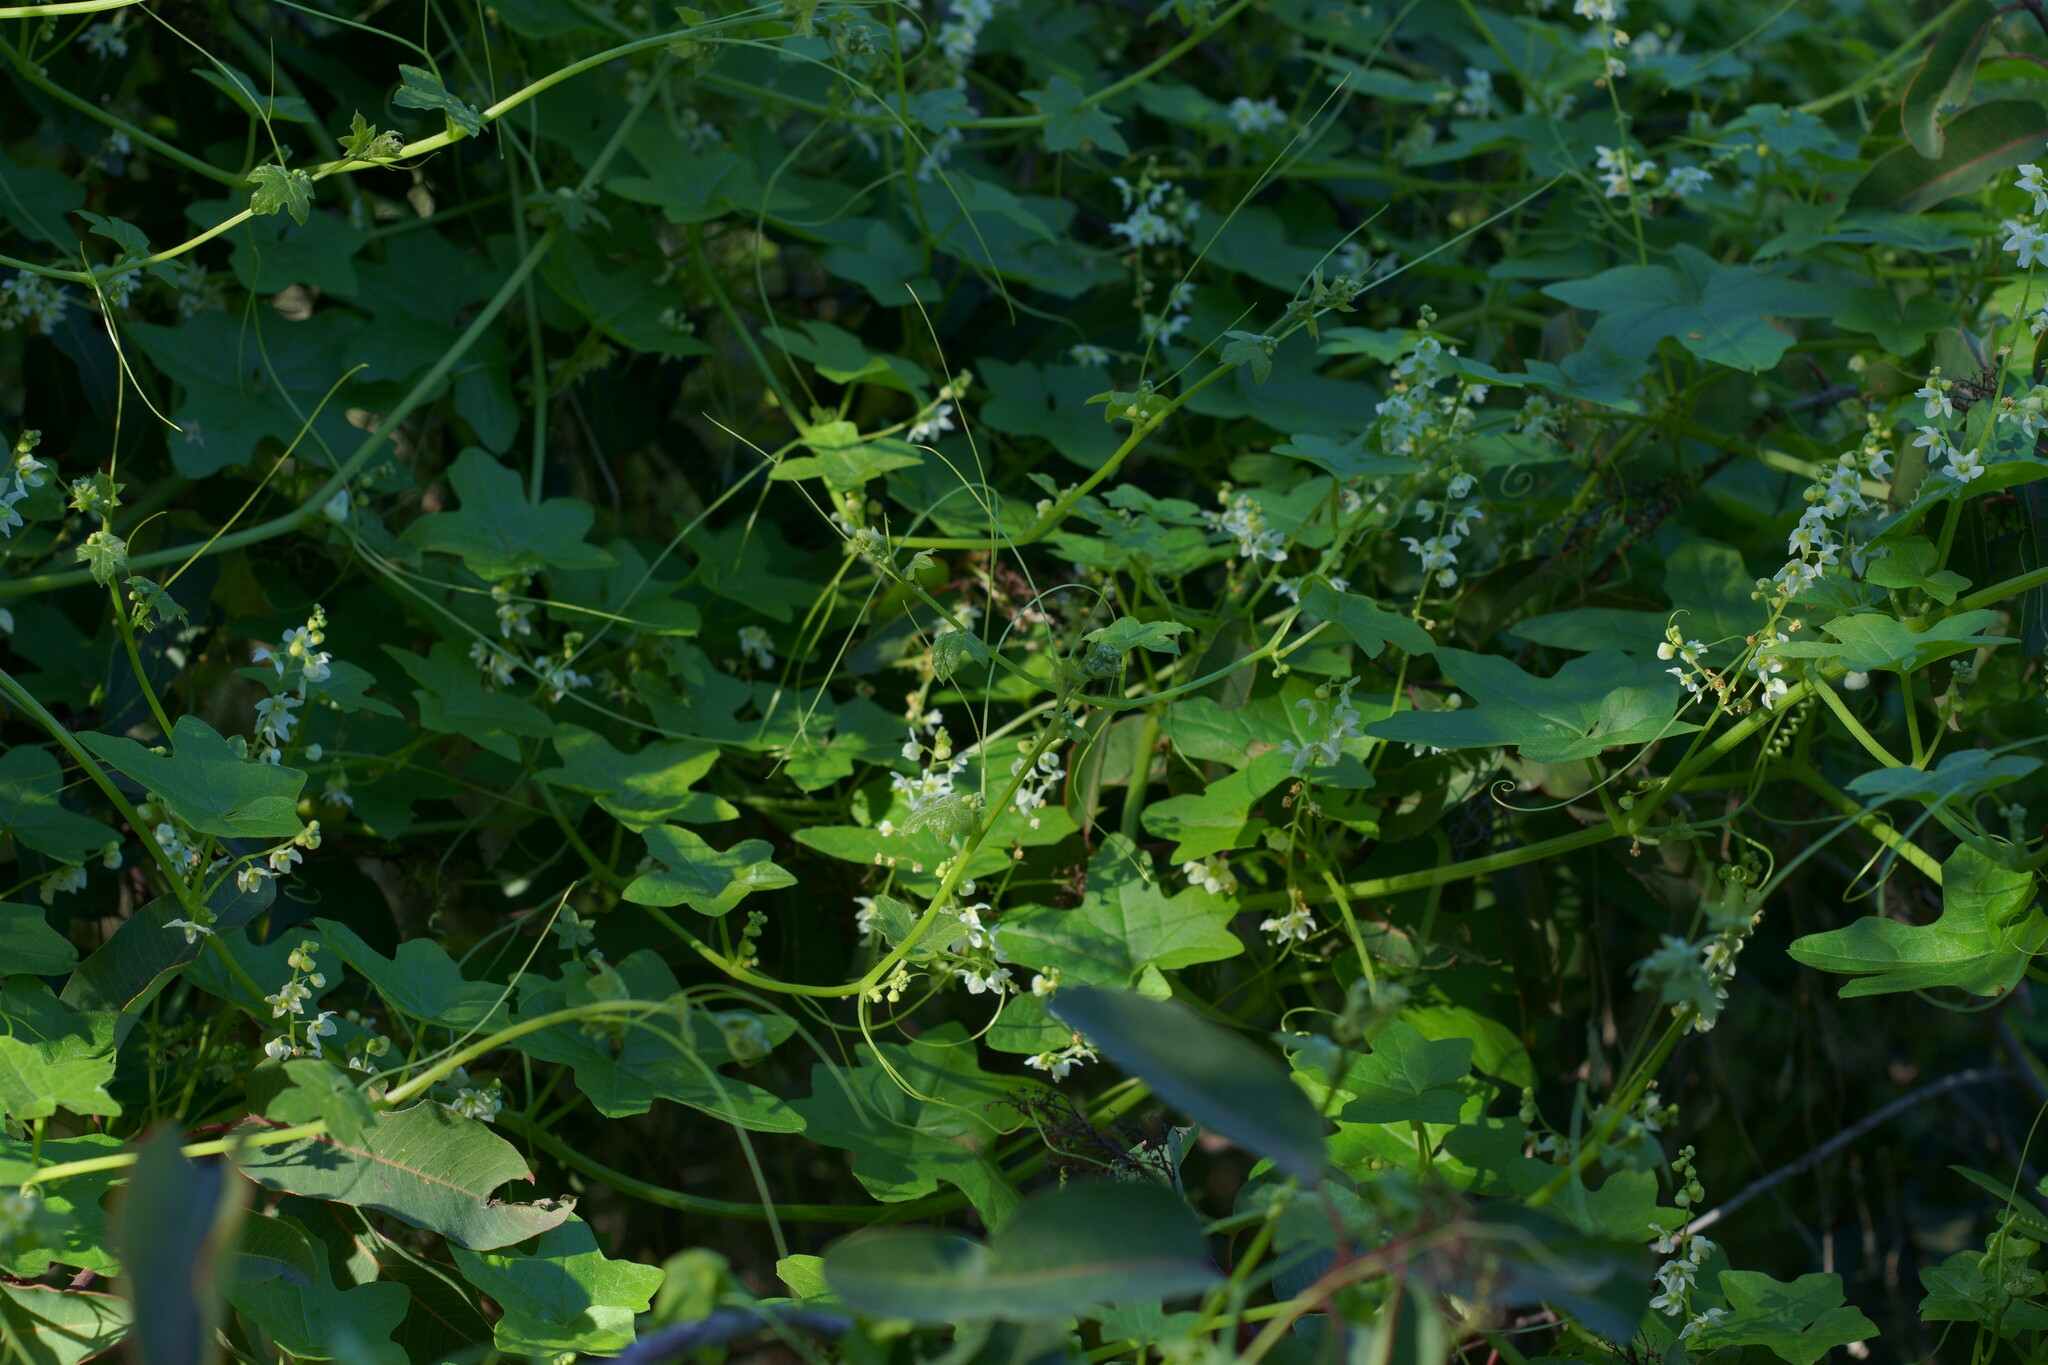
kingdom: Plantae
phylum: Tracheophyta
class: Magnoliopsida
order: Cucurbitales
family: Cucurbitaceae
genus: Marah
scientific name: Marah macrocarpa
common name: Cucamonga manroot
